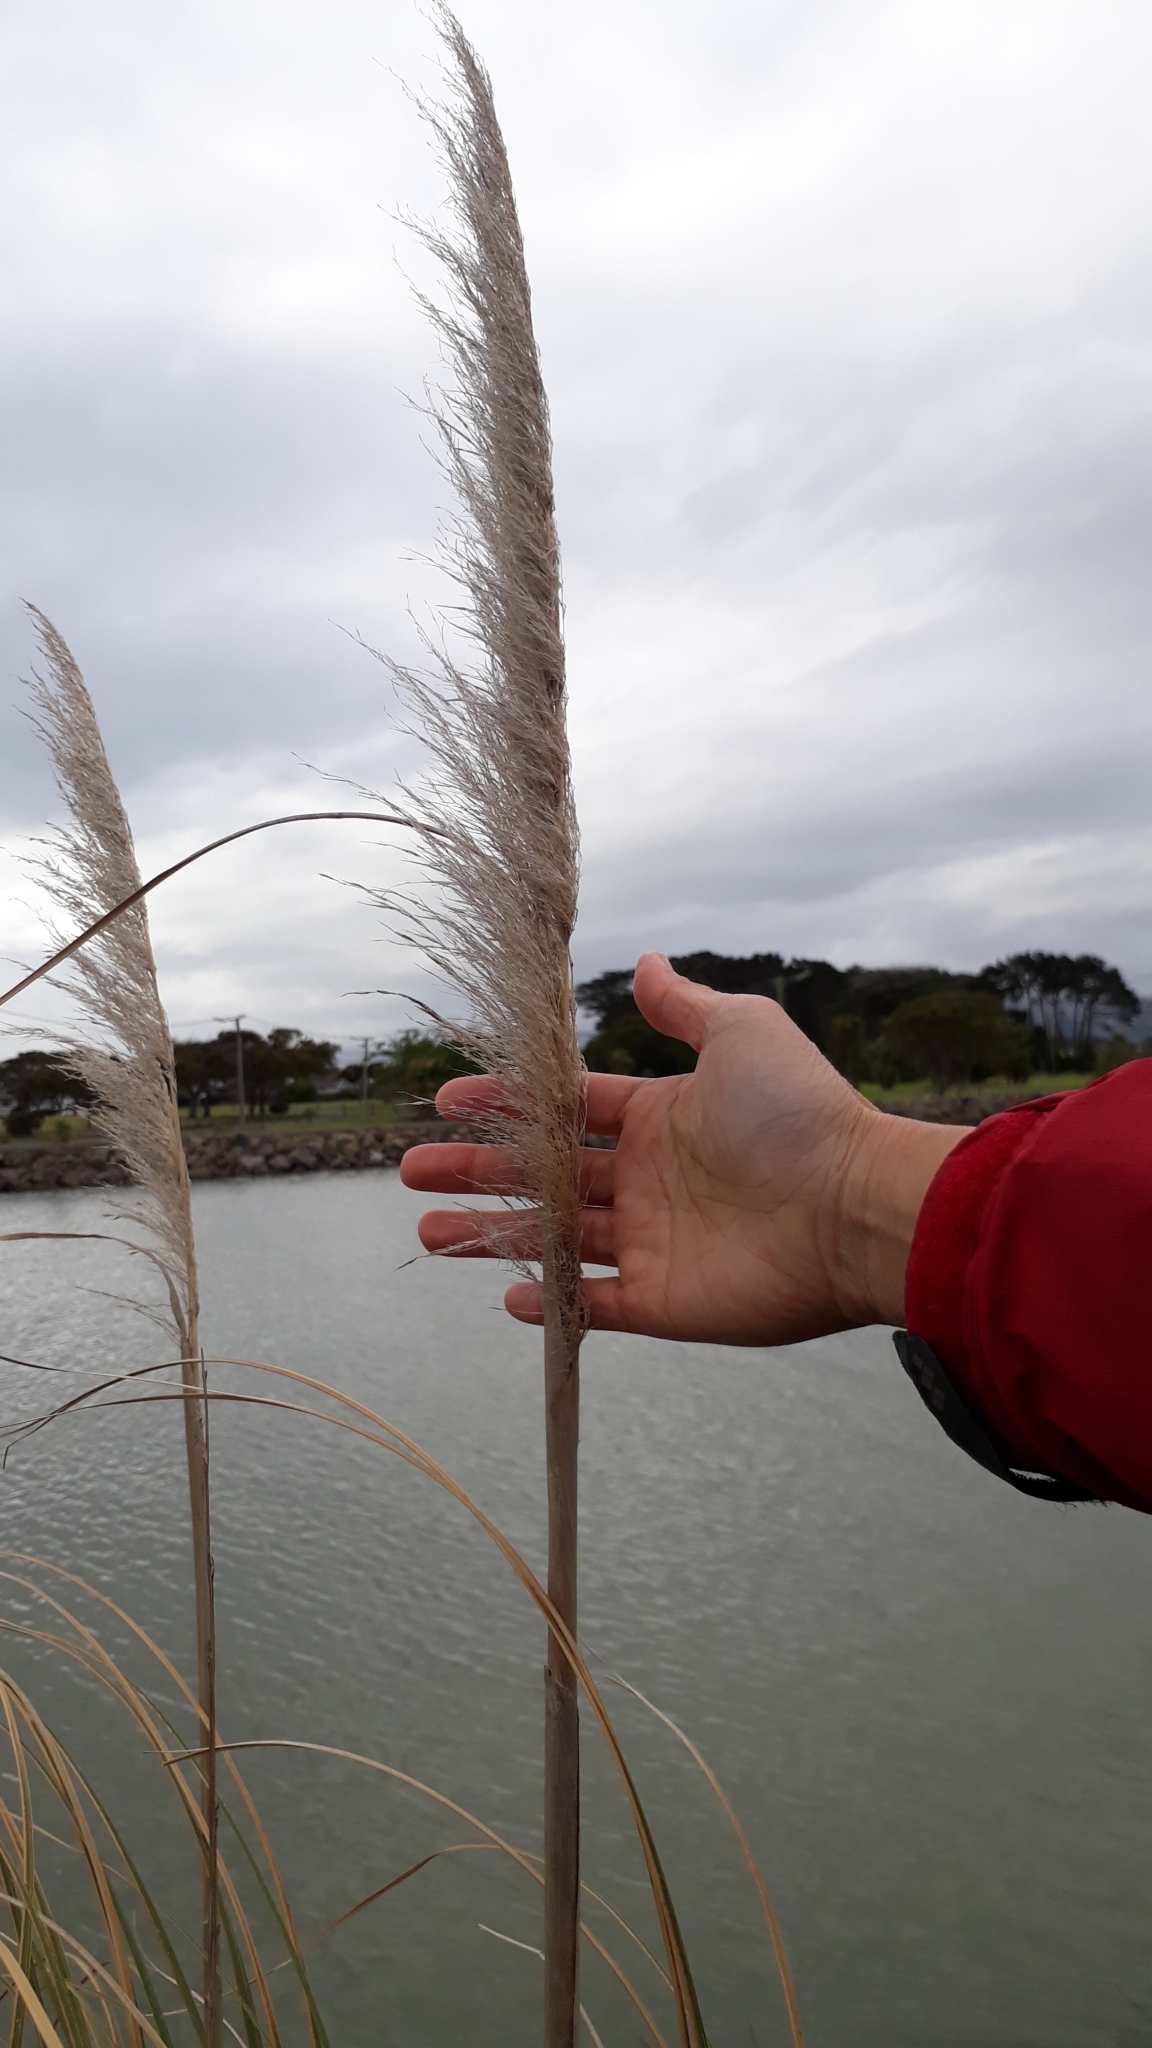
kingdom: Plantae
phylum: Tracheophyta
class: Liliopsida
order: Poales
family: Poaceae
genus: Cortaderia
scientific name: Cortaderia selloana
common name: Uruguayan pampas grass
